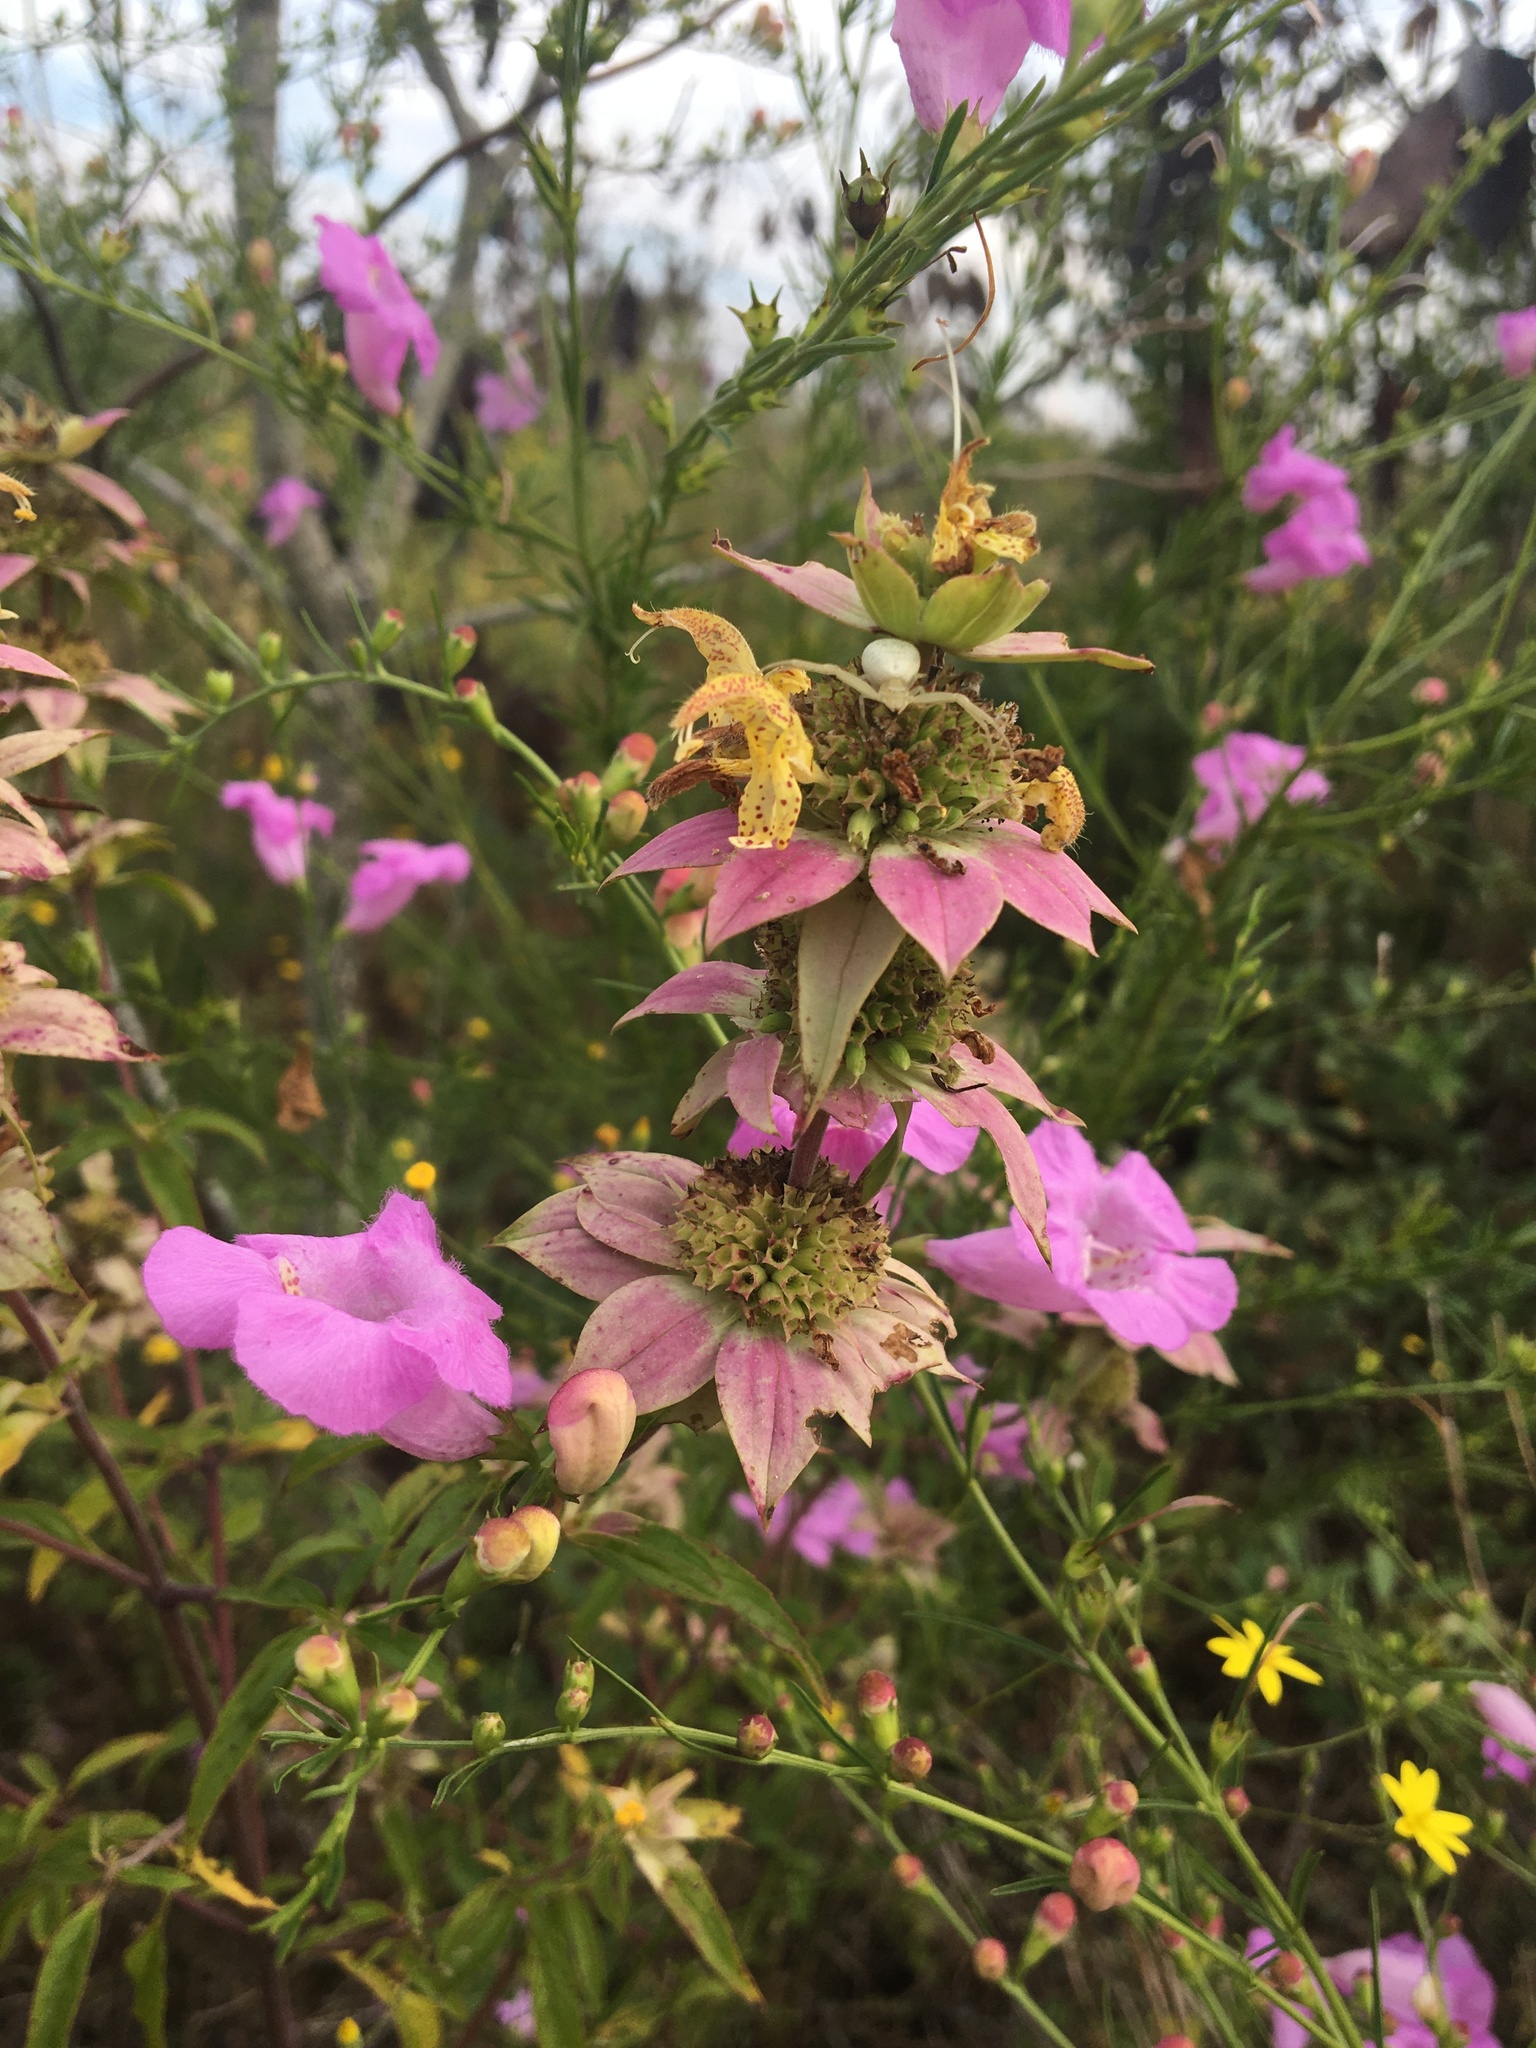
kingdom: Plantae
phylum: Tracheophyta
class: Magnoliopsida
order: Lamiales
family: Lamiaceae
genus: Monarda
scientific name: Monarda punctata
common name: Dotted monarda
